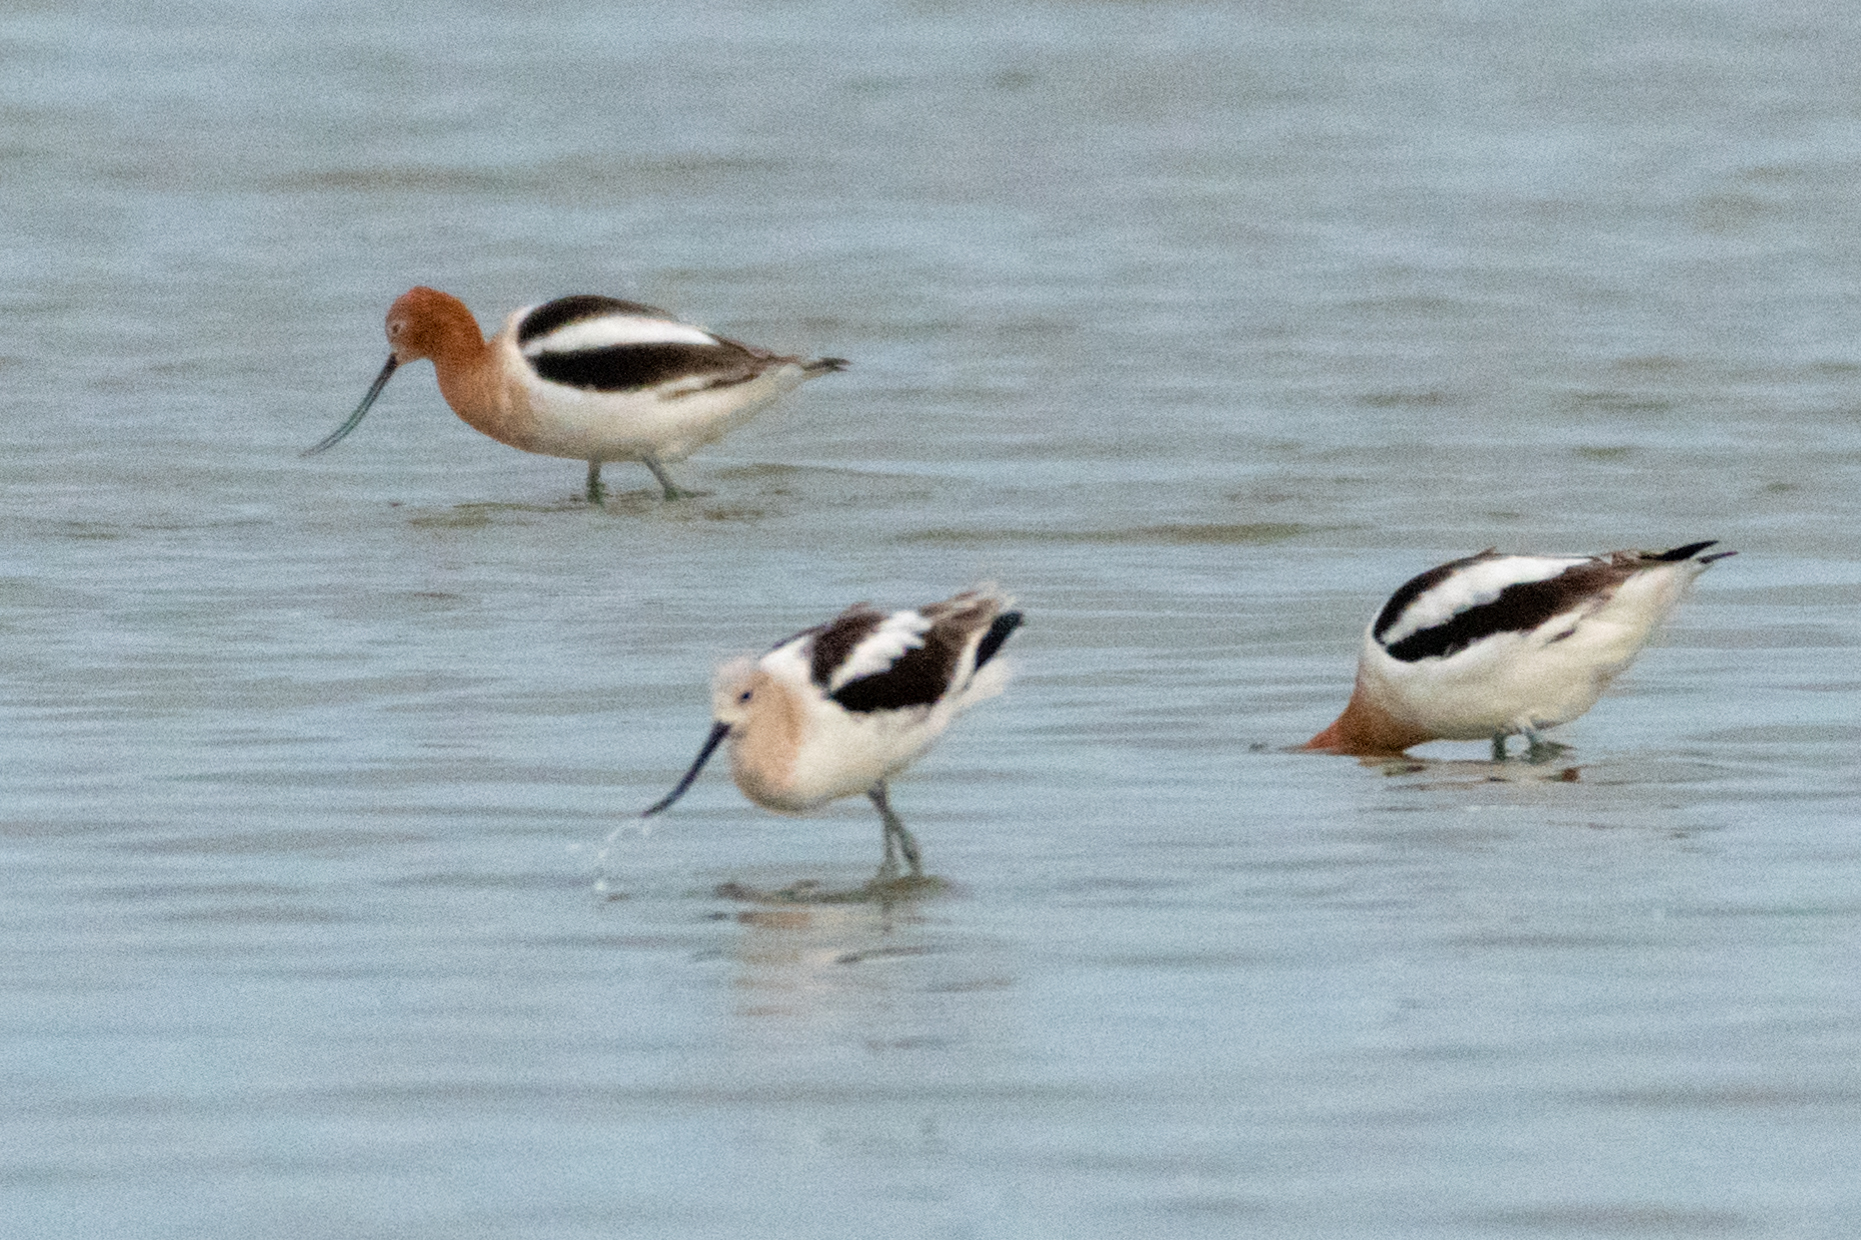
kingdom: Animalia
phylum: Chordata
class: Aves
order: Charadriiformes
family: Recurvirostridae
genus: Recurvirostra
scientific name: Recurvirostra americana
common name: American avocet
